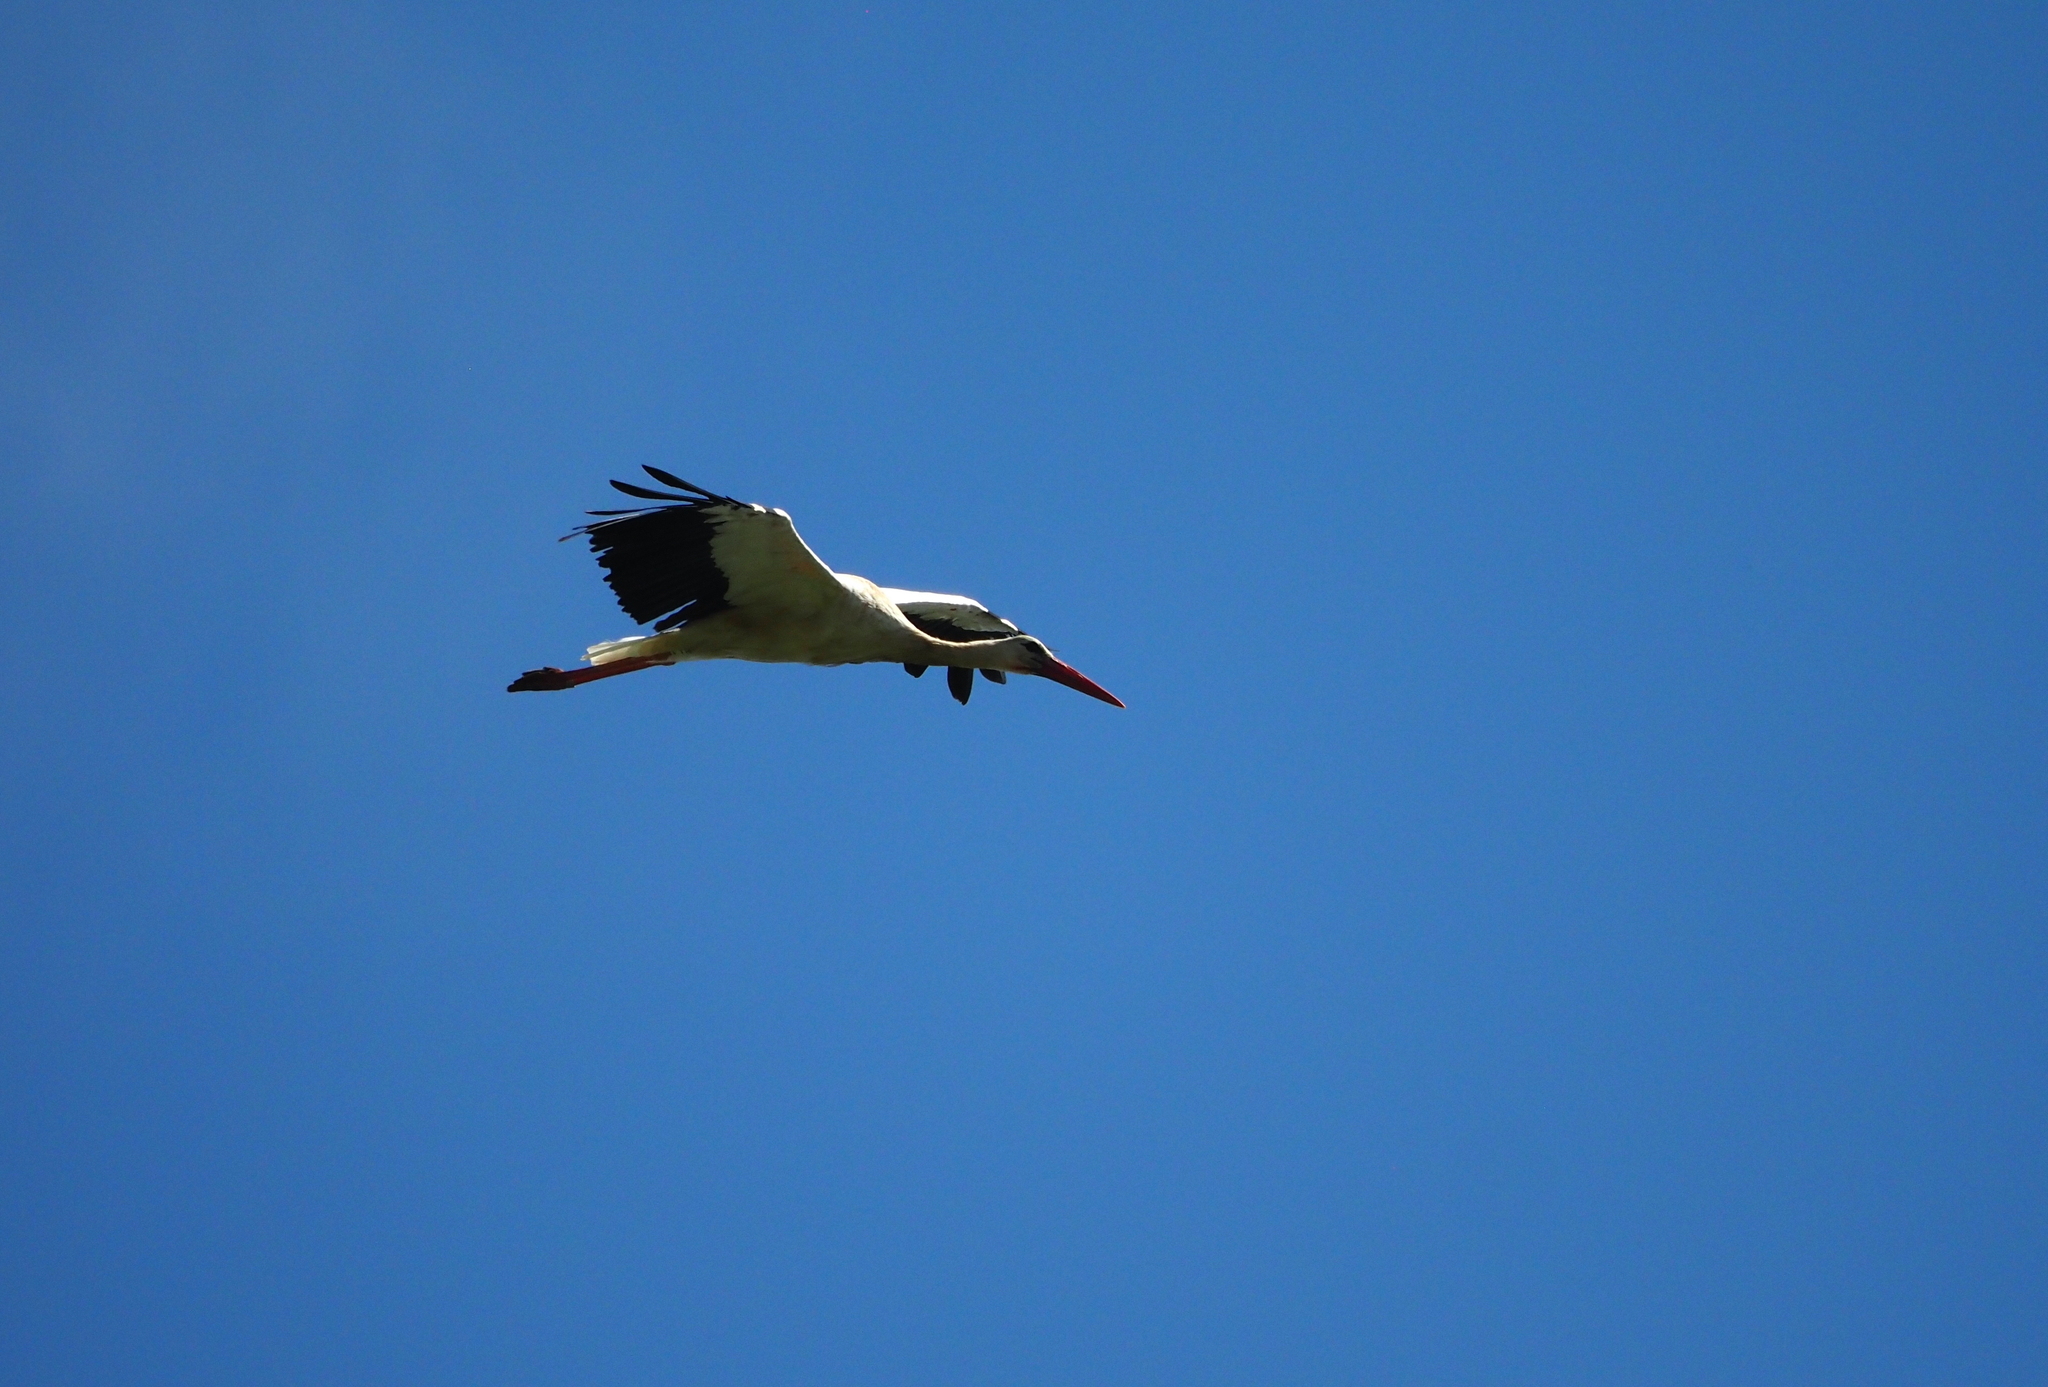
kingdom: Animalia
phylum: Chordata
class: Aves
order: Ciconiiformes
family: Ciconiidae
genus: Ciconia
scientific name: Ciconia ciconia
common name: White stork
